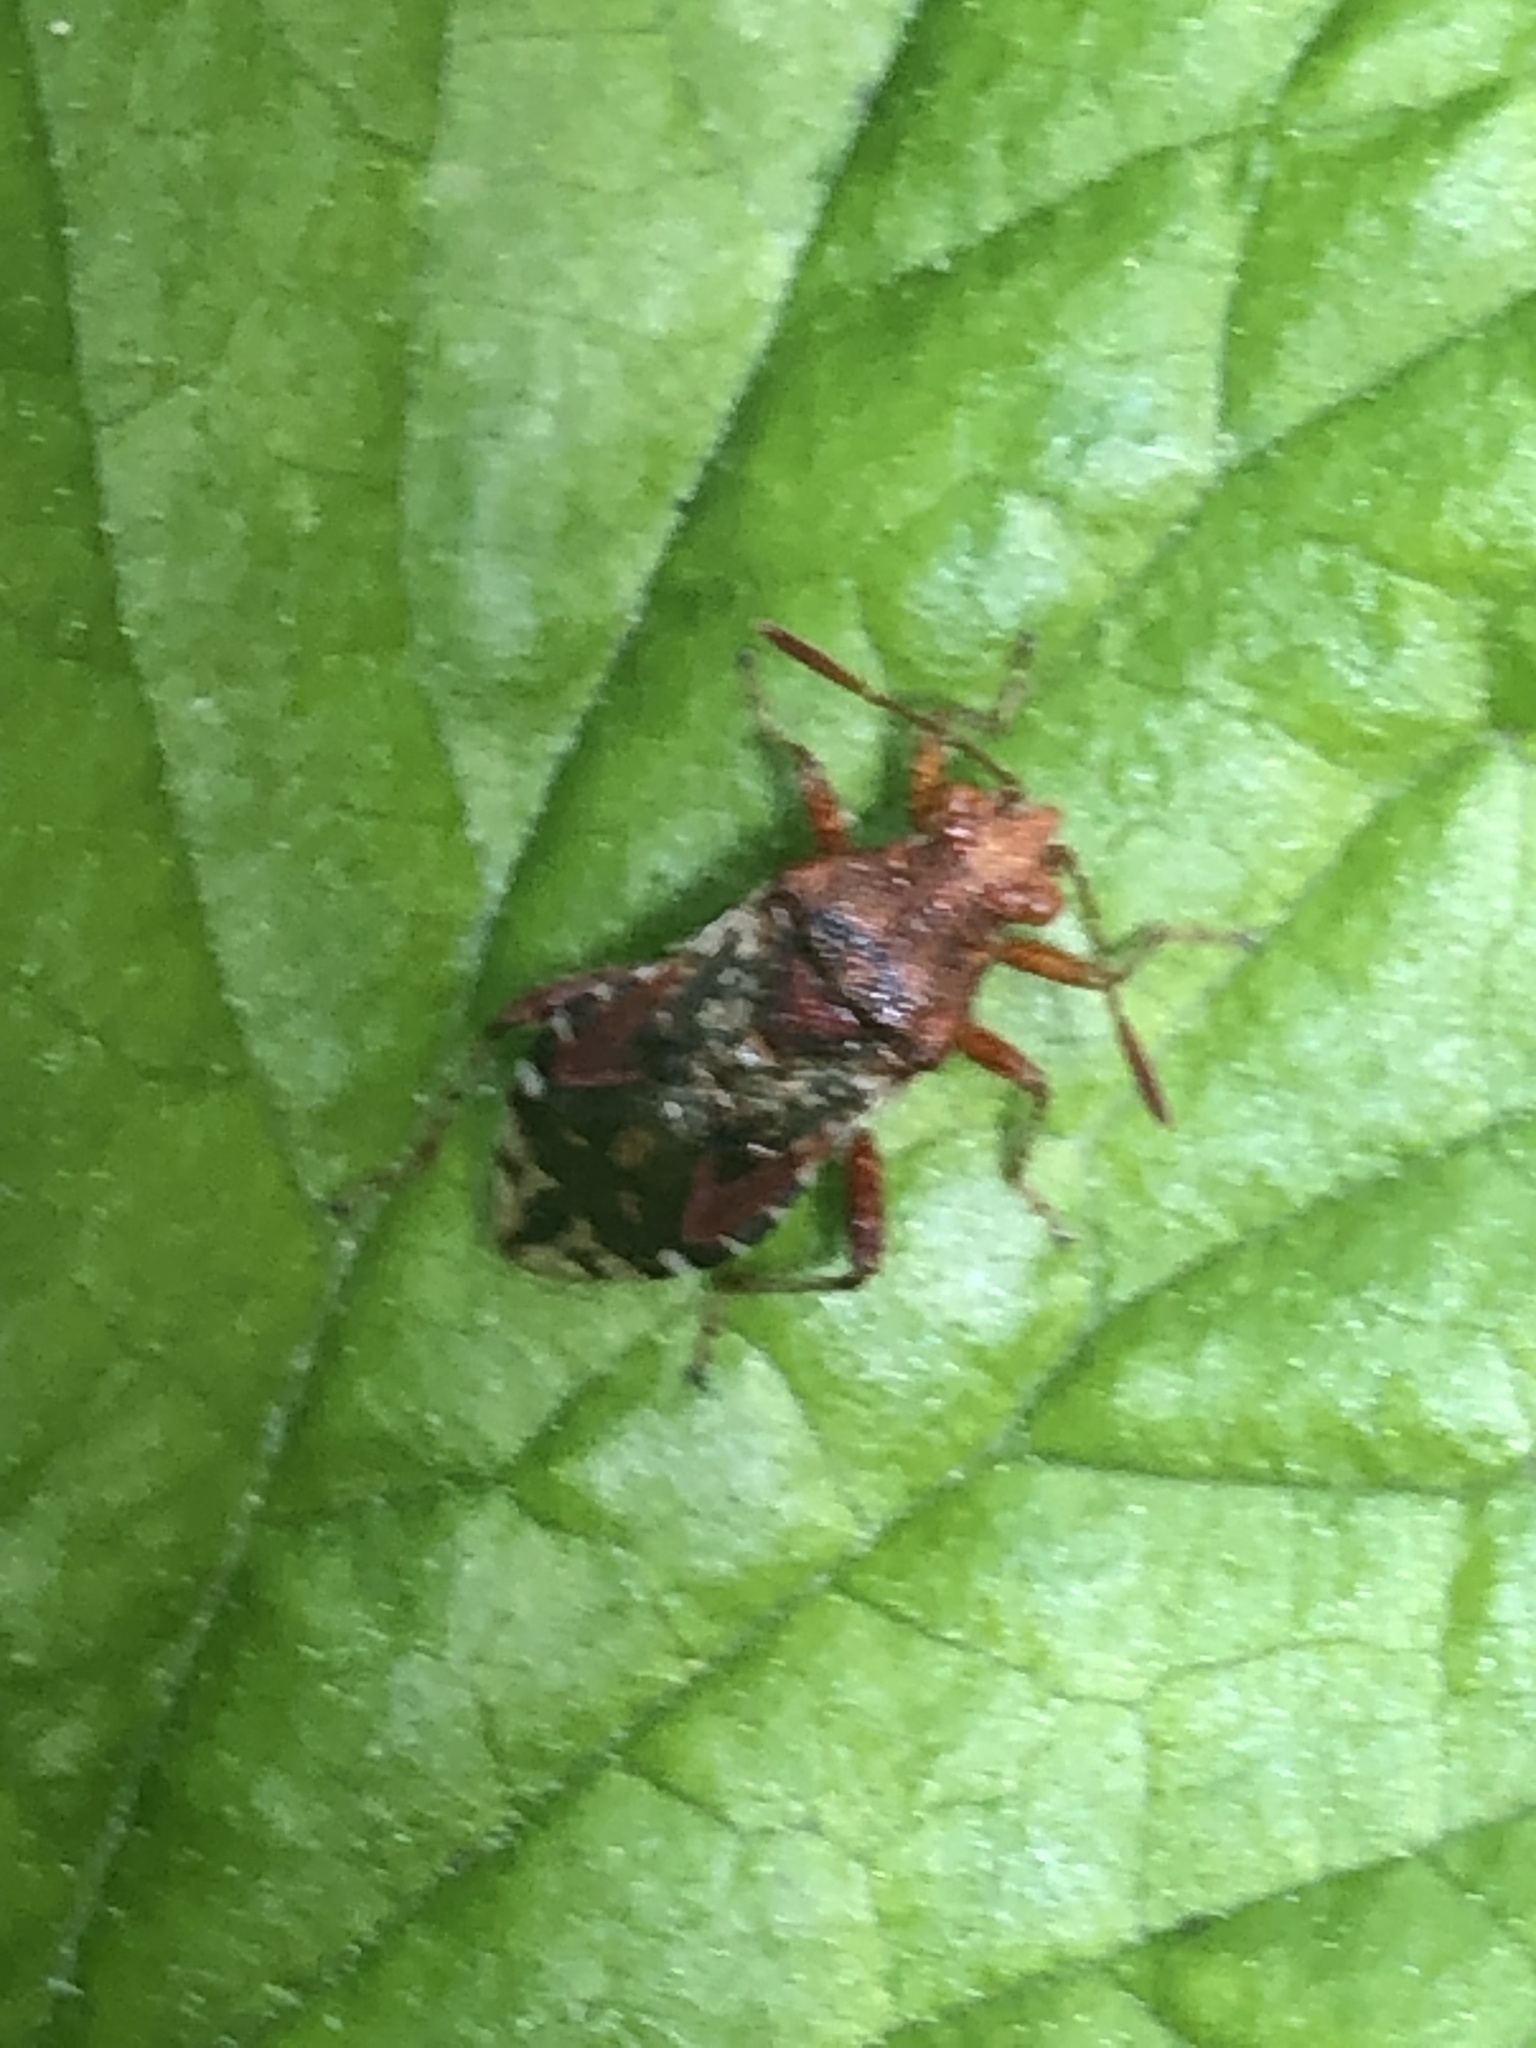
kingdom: Animalia
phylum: Arthropoda
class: Insecta
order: Hemiptera
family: Rhopalidae
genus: Rhopalus
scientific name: Rhopalus subrufus
